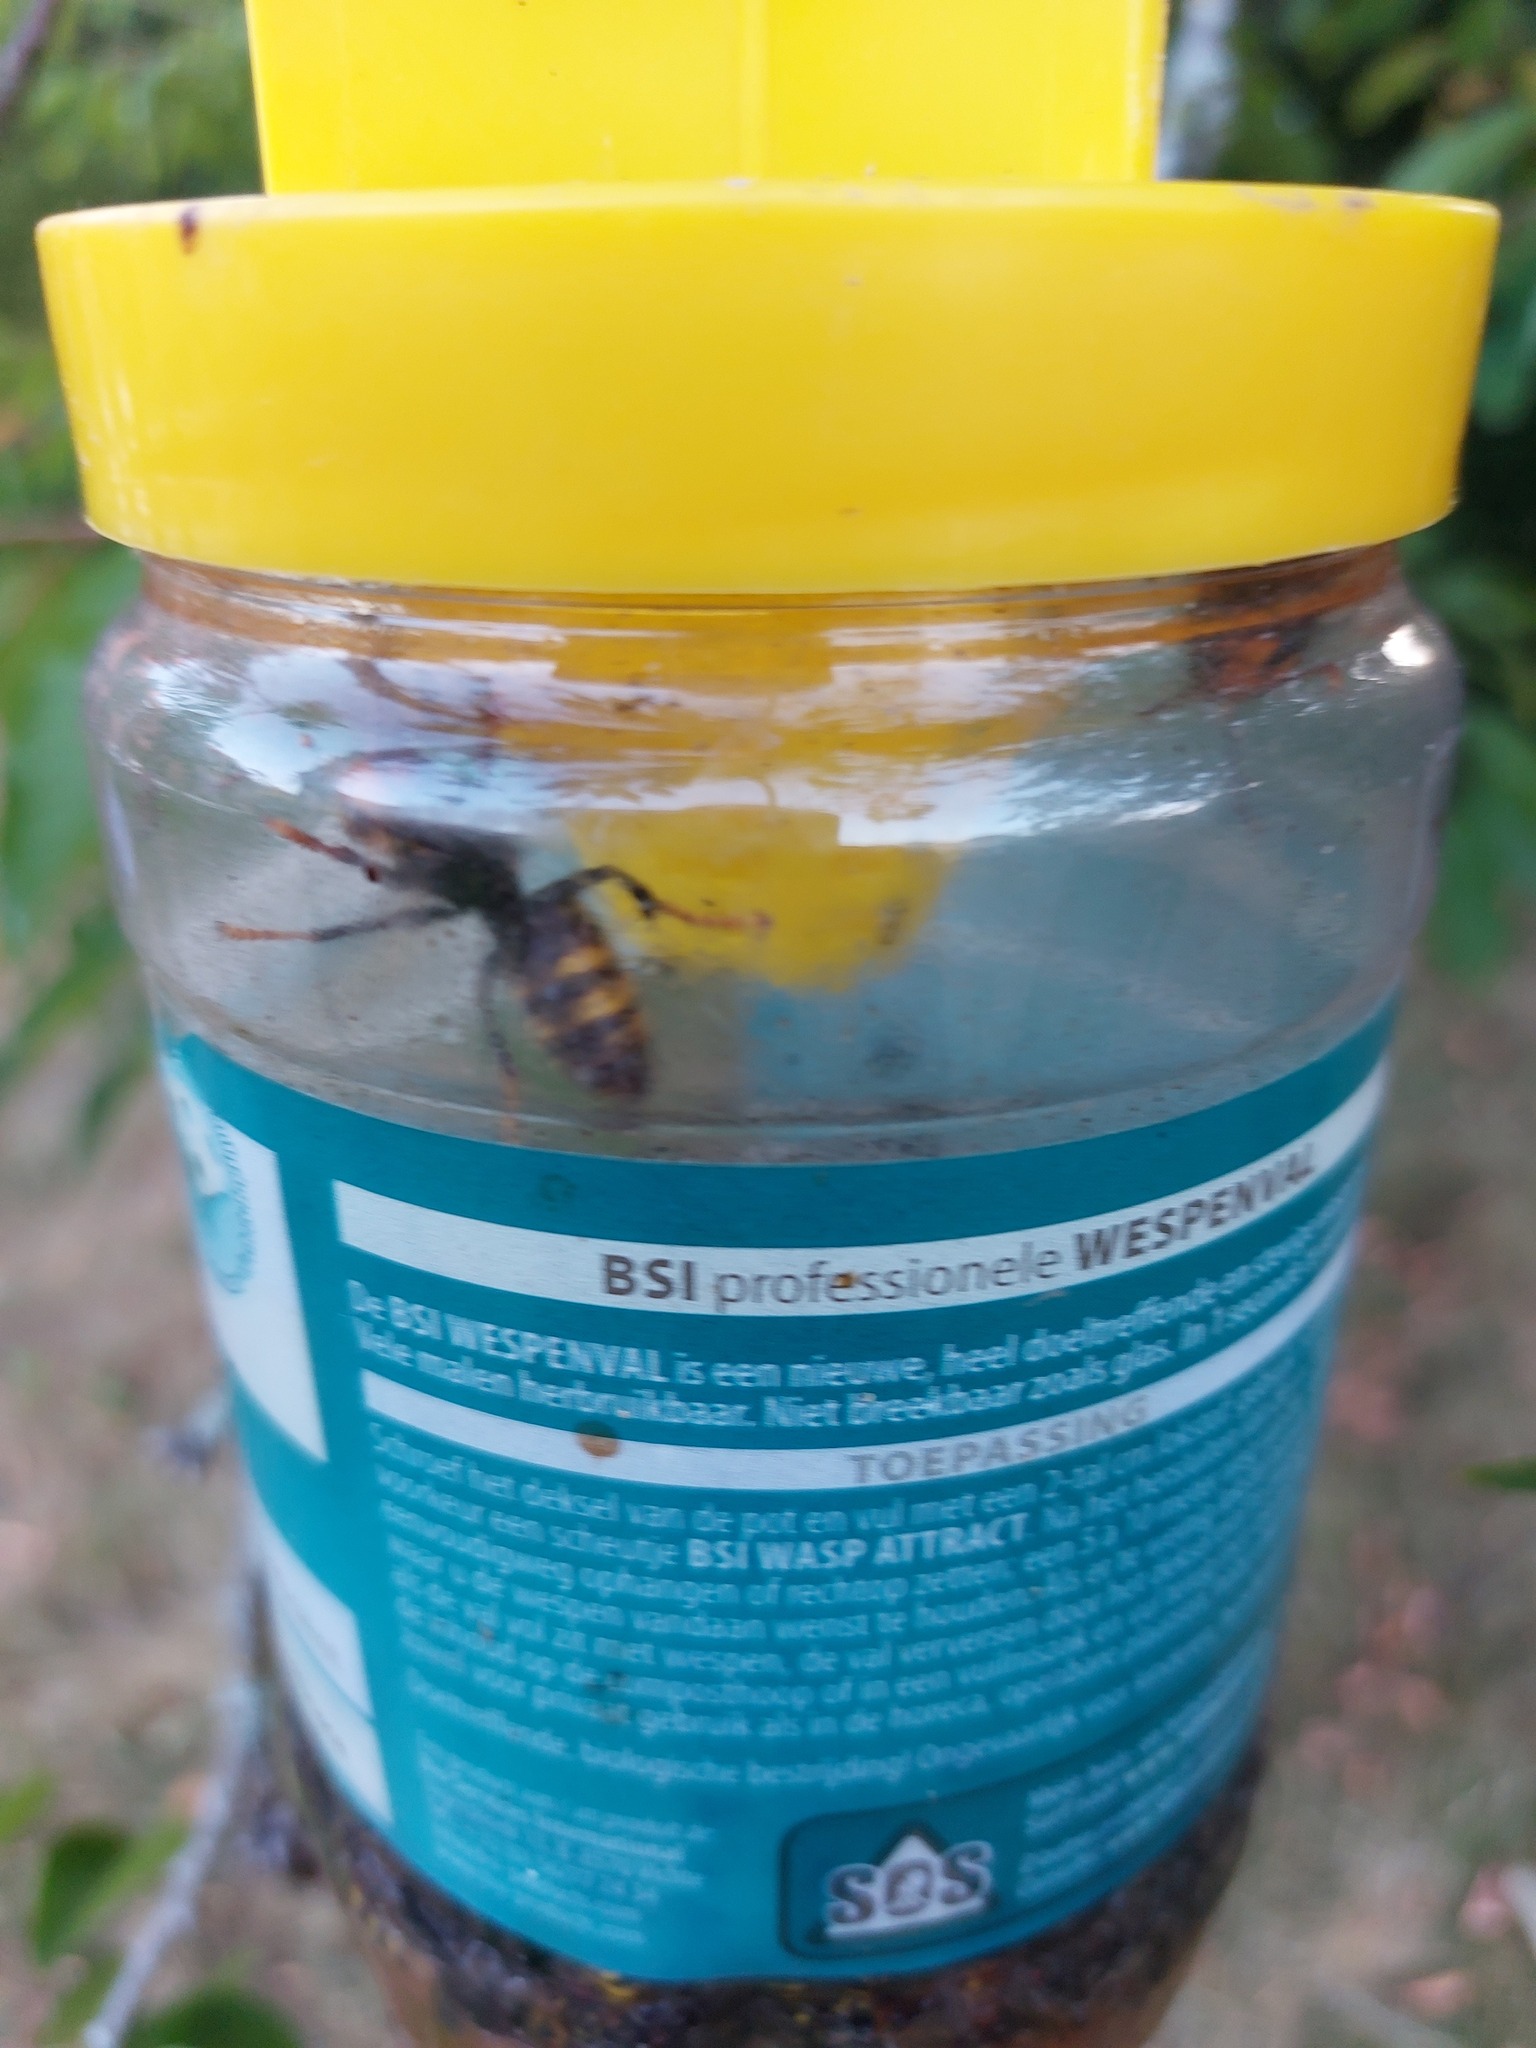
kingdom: Animalia
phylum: Arthropoda
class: Insecta
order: Hymenoptera
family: Vespidae
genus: Vespa
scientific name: Vespa velutina
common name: Asian hornet
